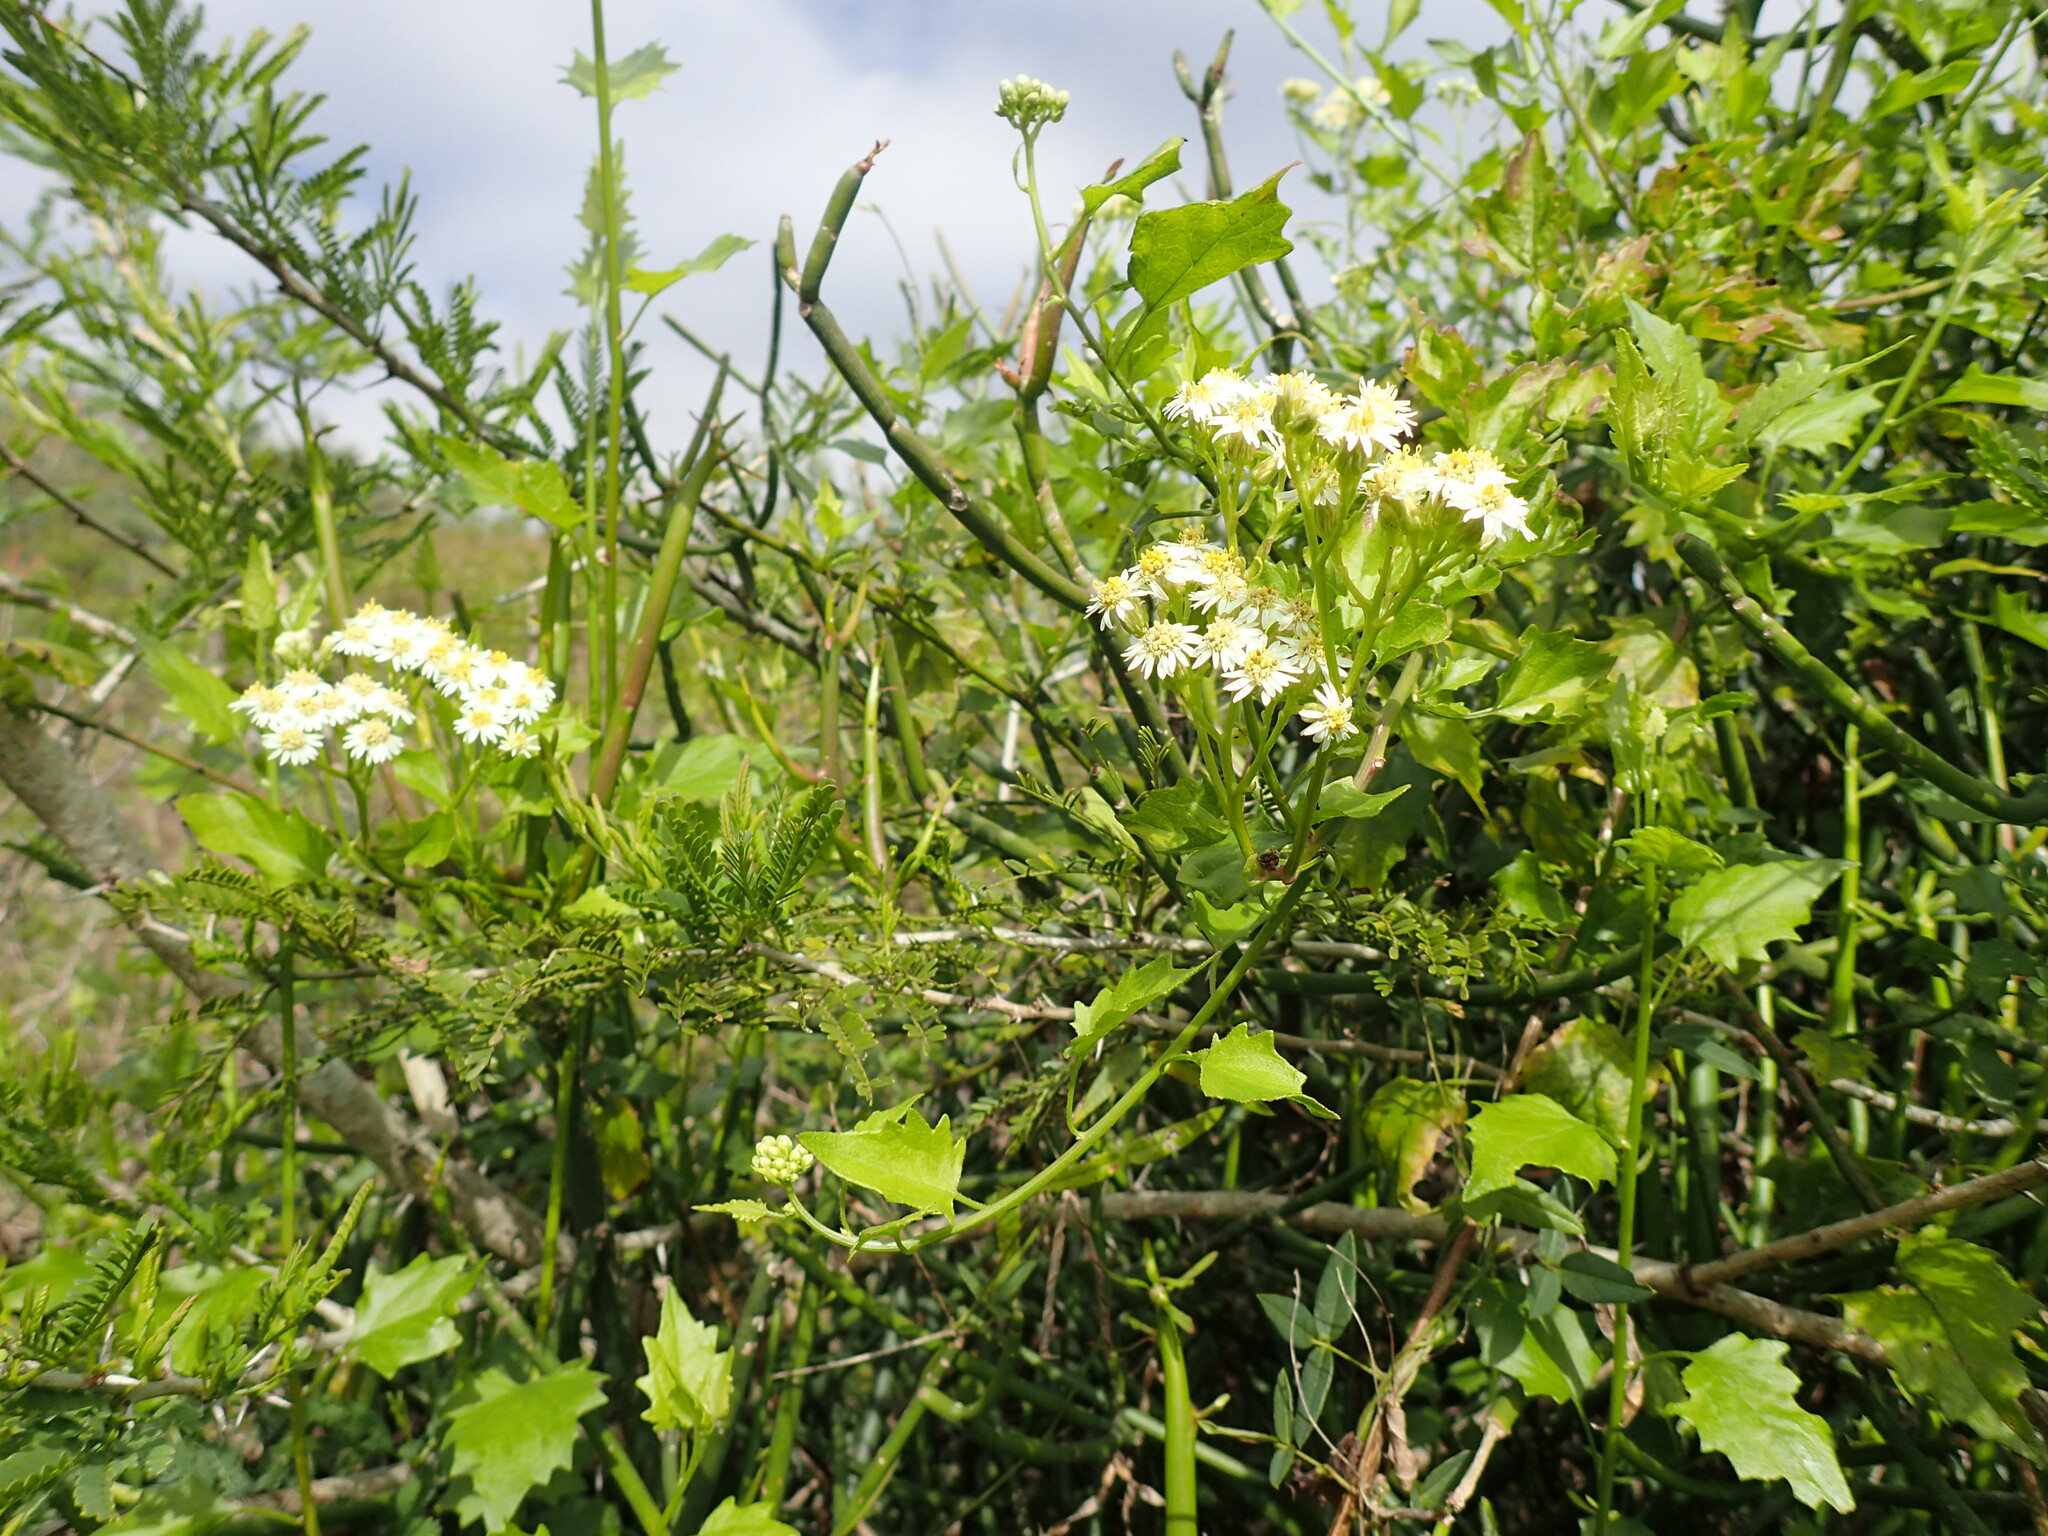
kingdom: Plantae
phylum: Tracheophyta
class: Magnoliopsida
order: Asterales
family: Asteraceae
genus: Microglossa
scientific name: Microglossa mespilifolia
